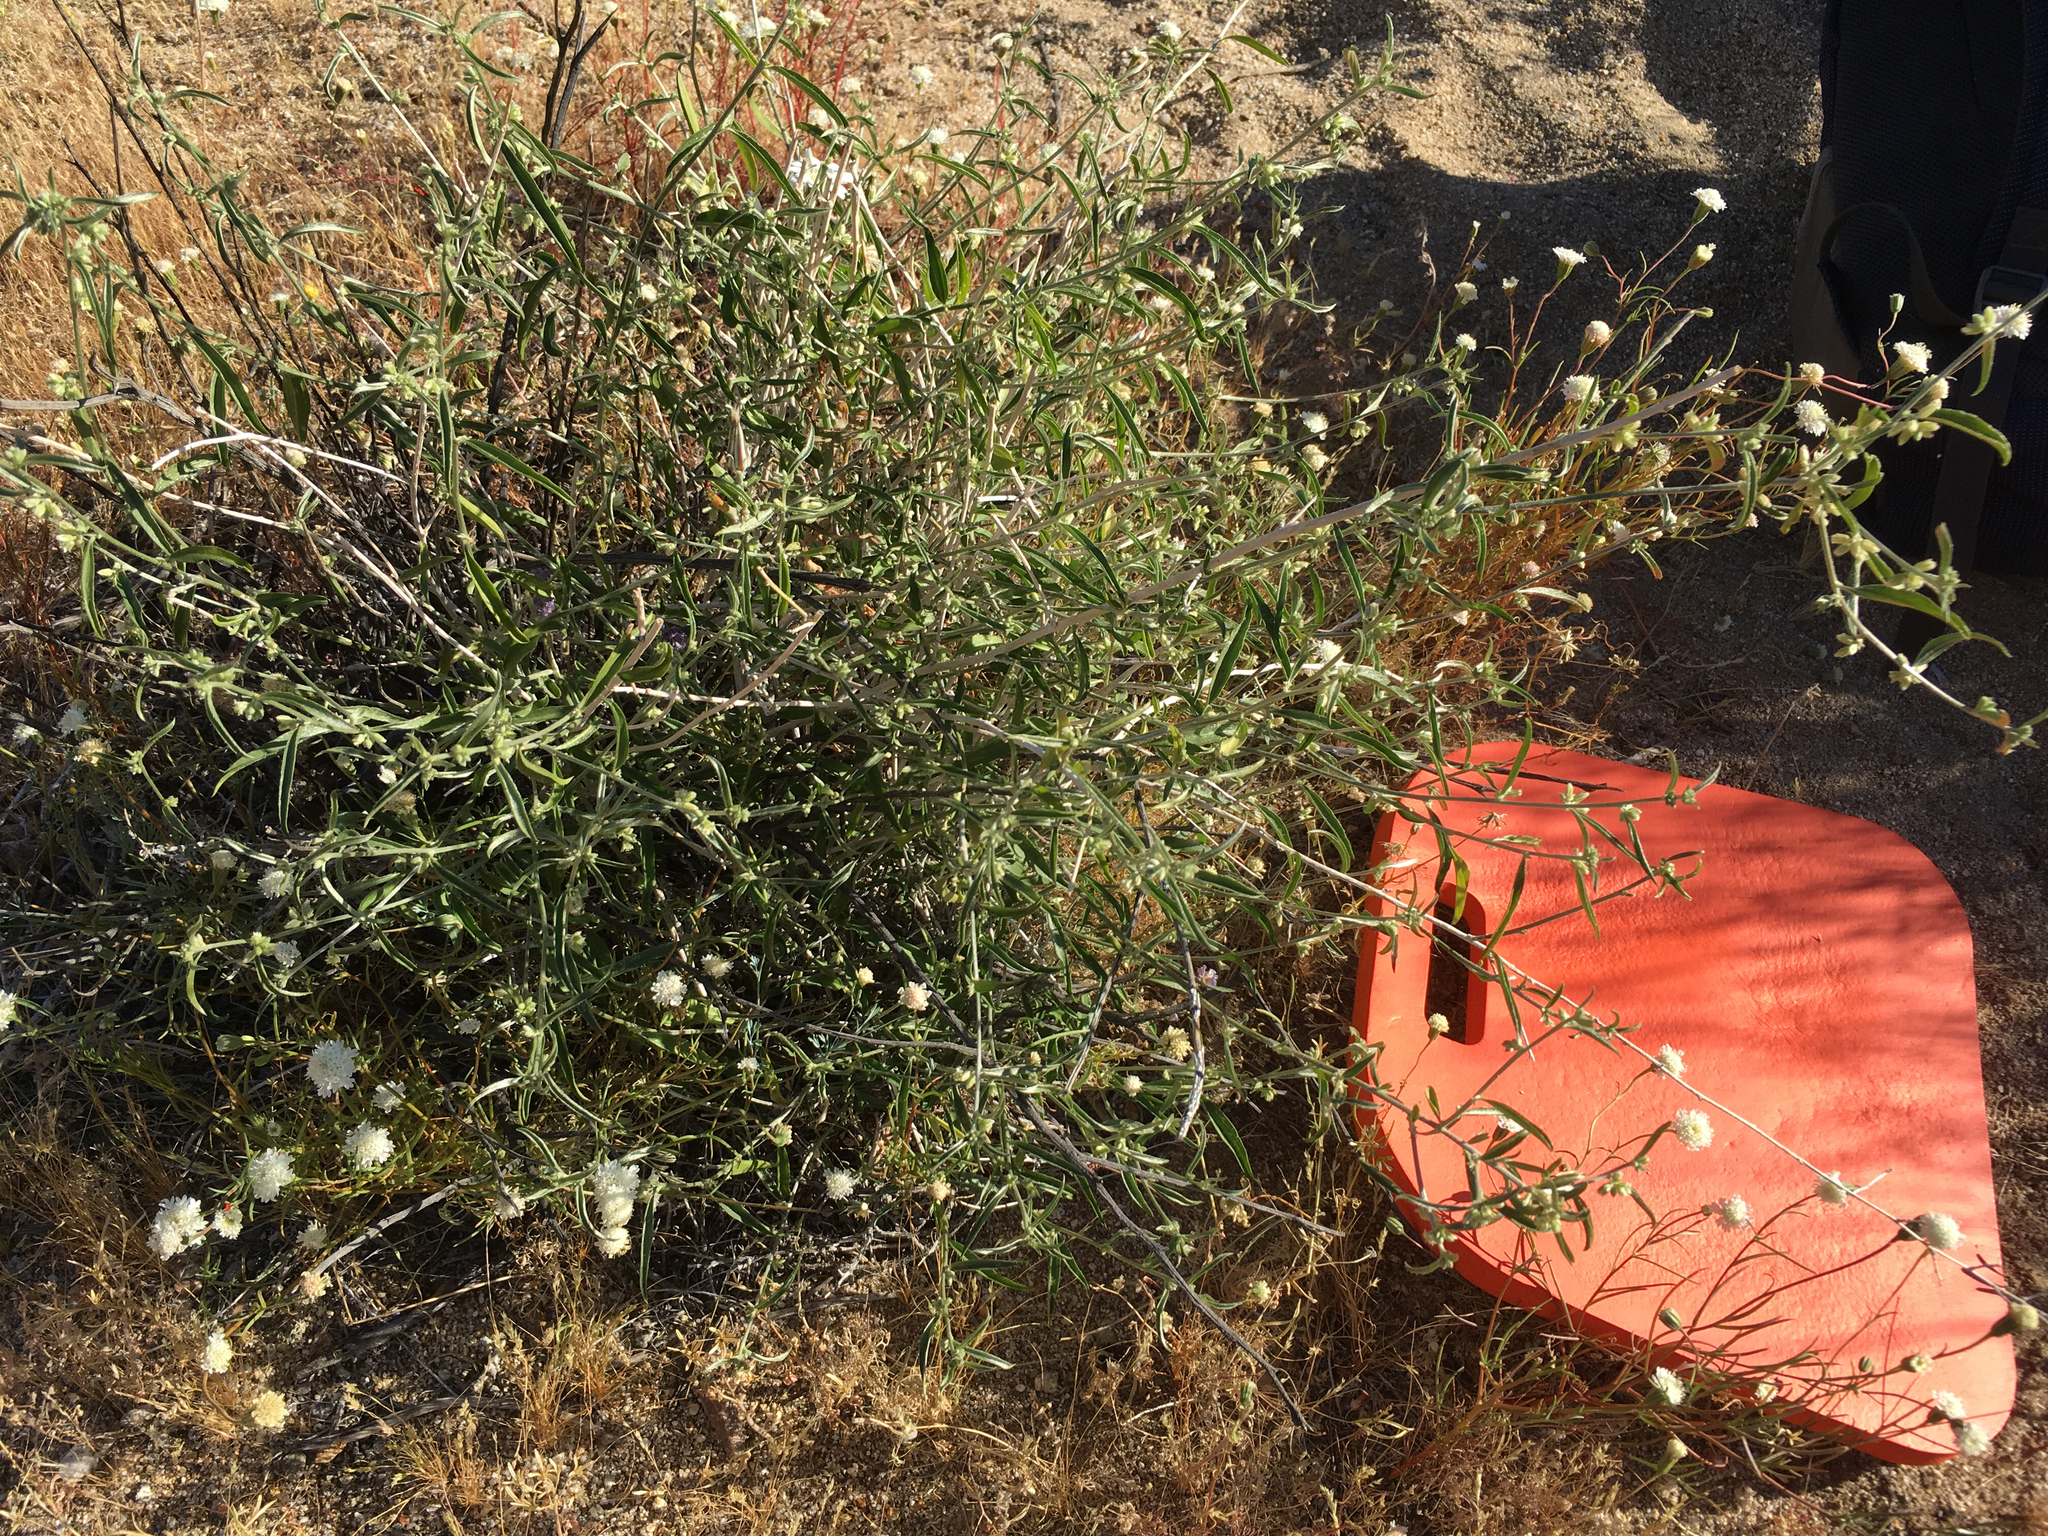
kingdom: Plantae
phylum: Tracheophyta
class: Magnoliopsida
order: Malpighiales
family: Euphorbiaceae
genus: Ditaxis
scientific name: Ditaxis lanceolata
